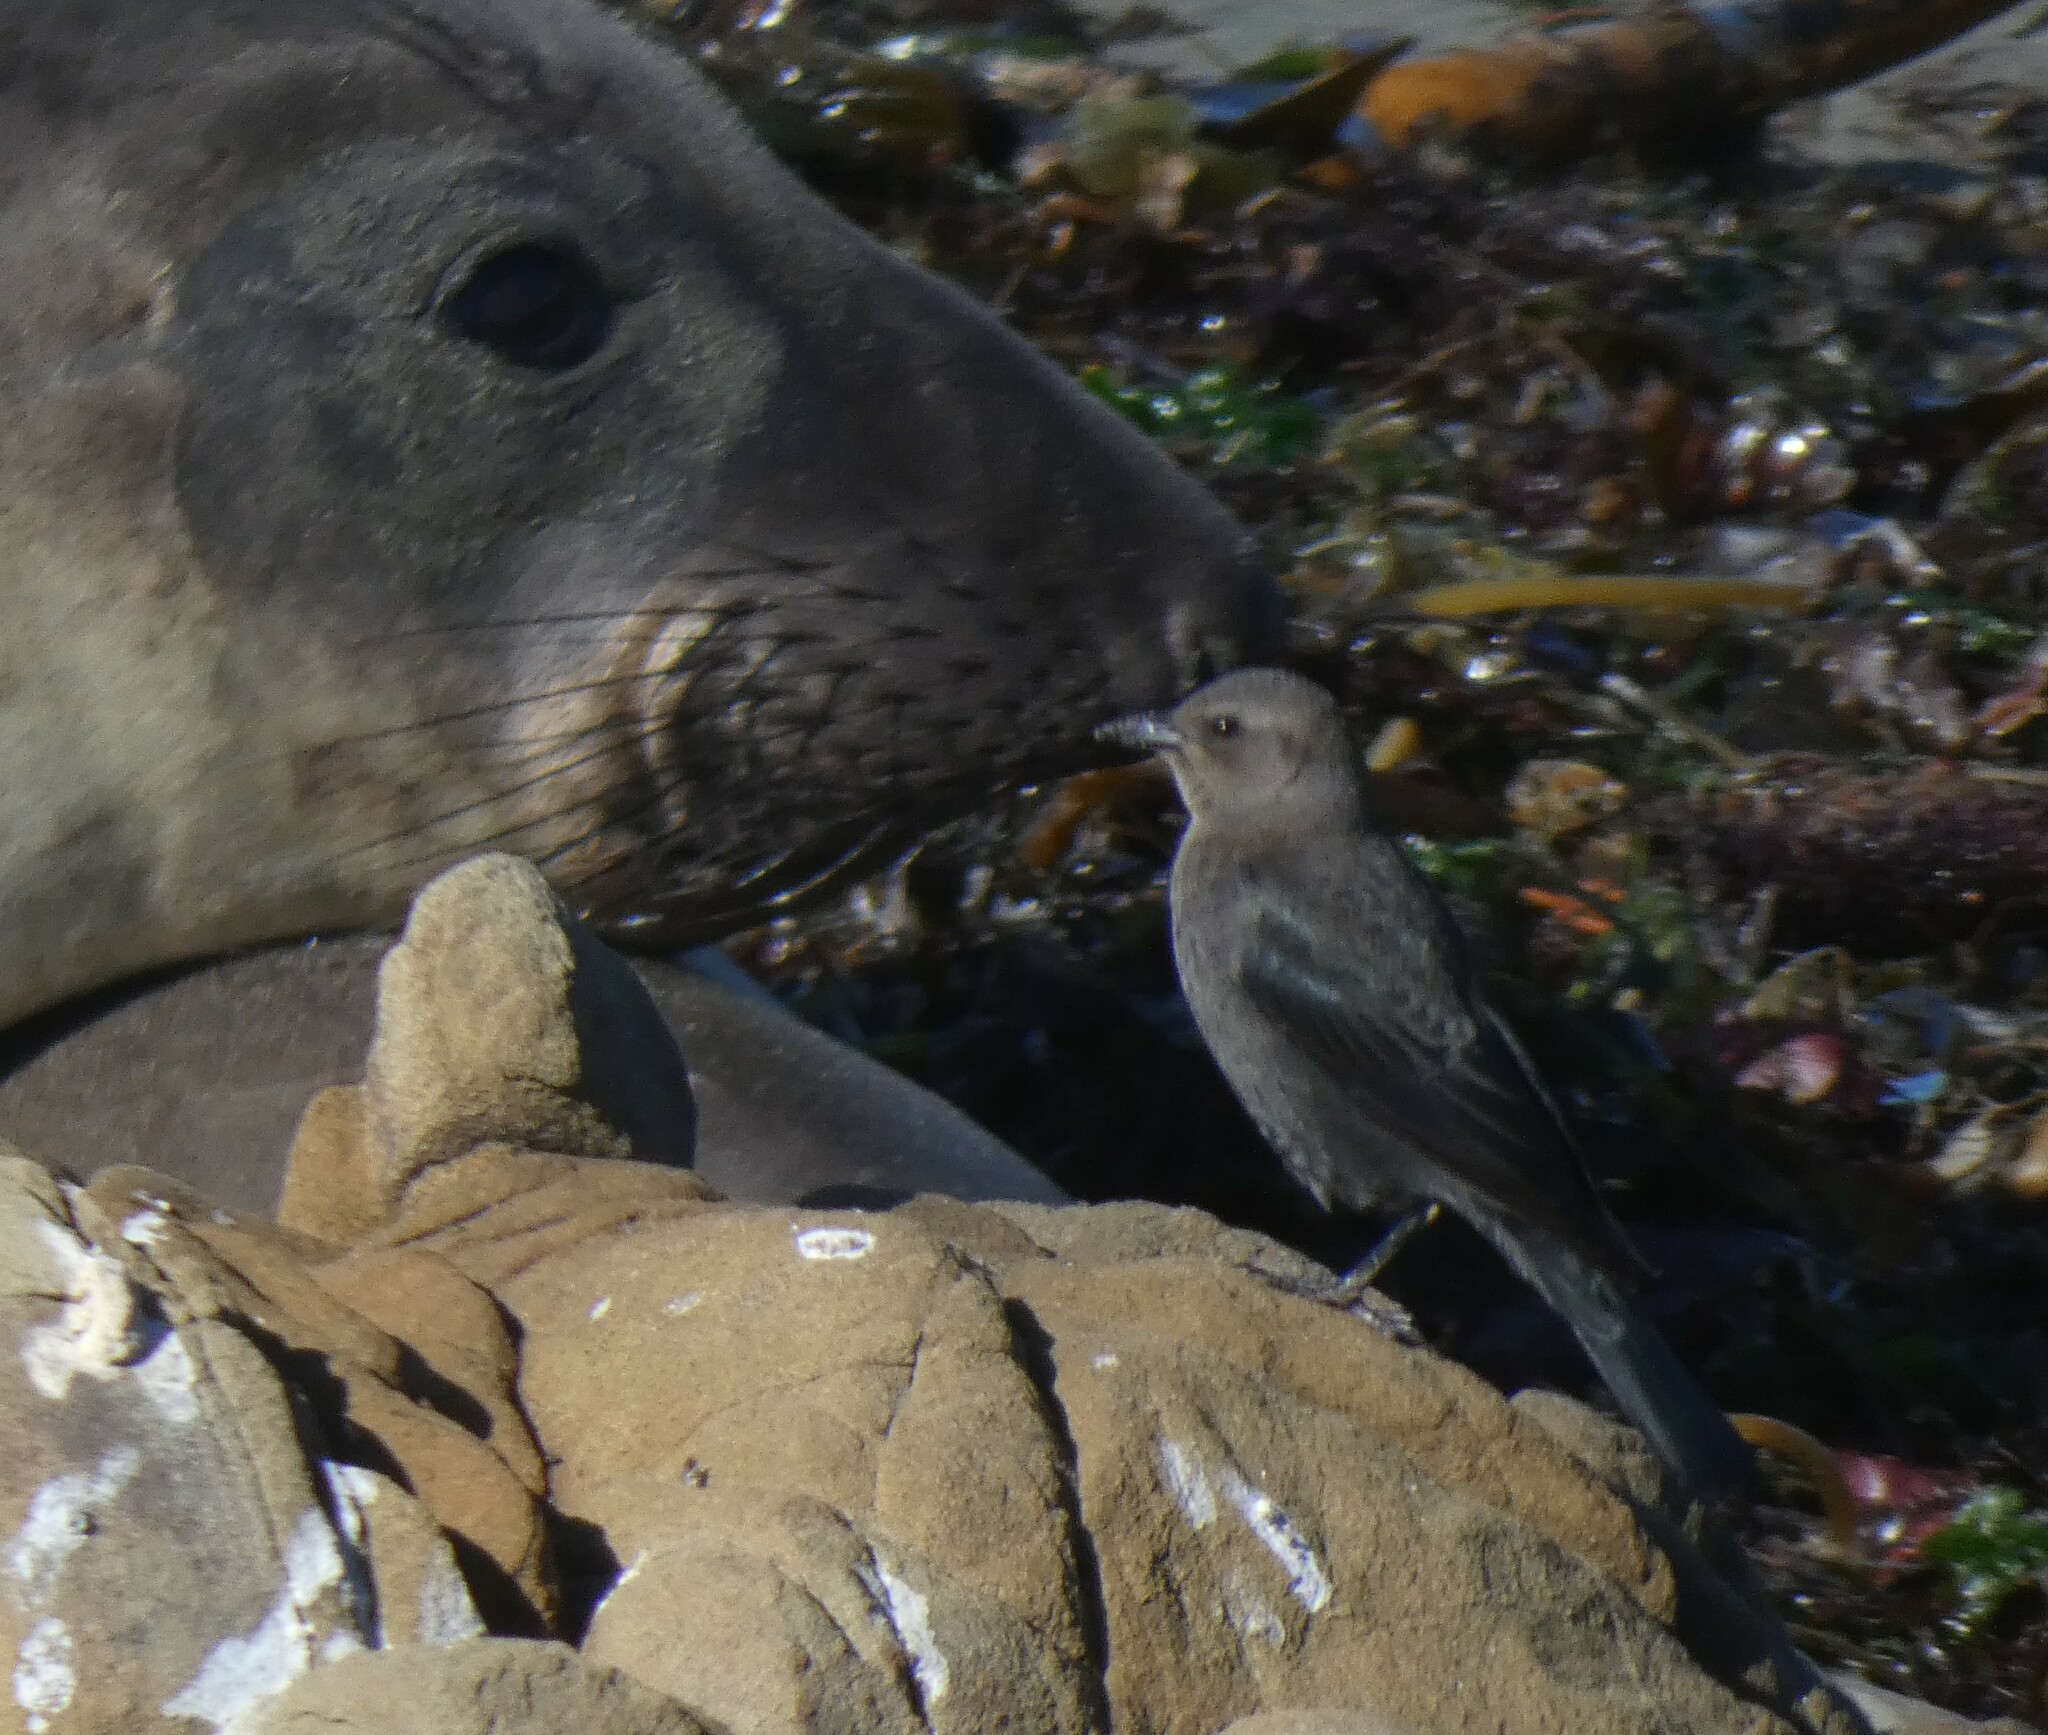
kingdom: Animalia
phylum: Chordata
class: Aves
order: Passeriformes
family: Icteridae
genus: Euphagus
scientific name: Euphagus cyanocephalus
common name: Brewer's blackbird
